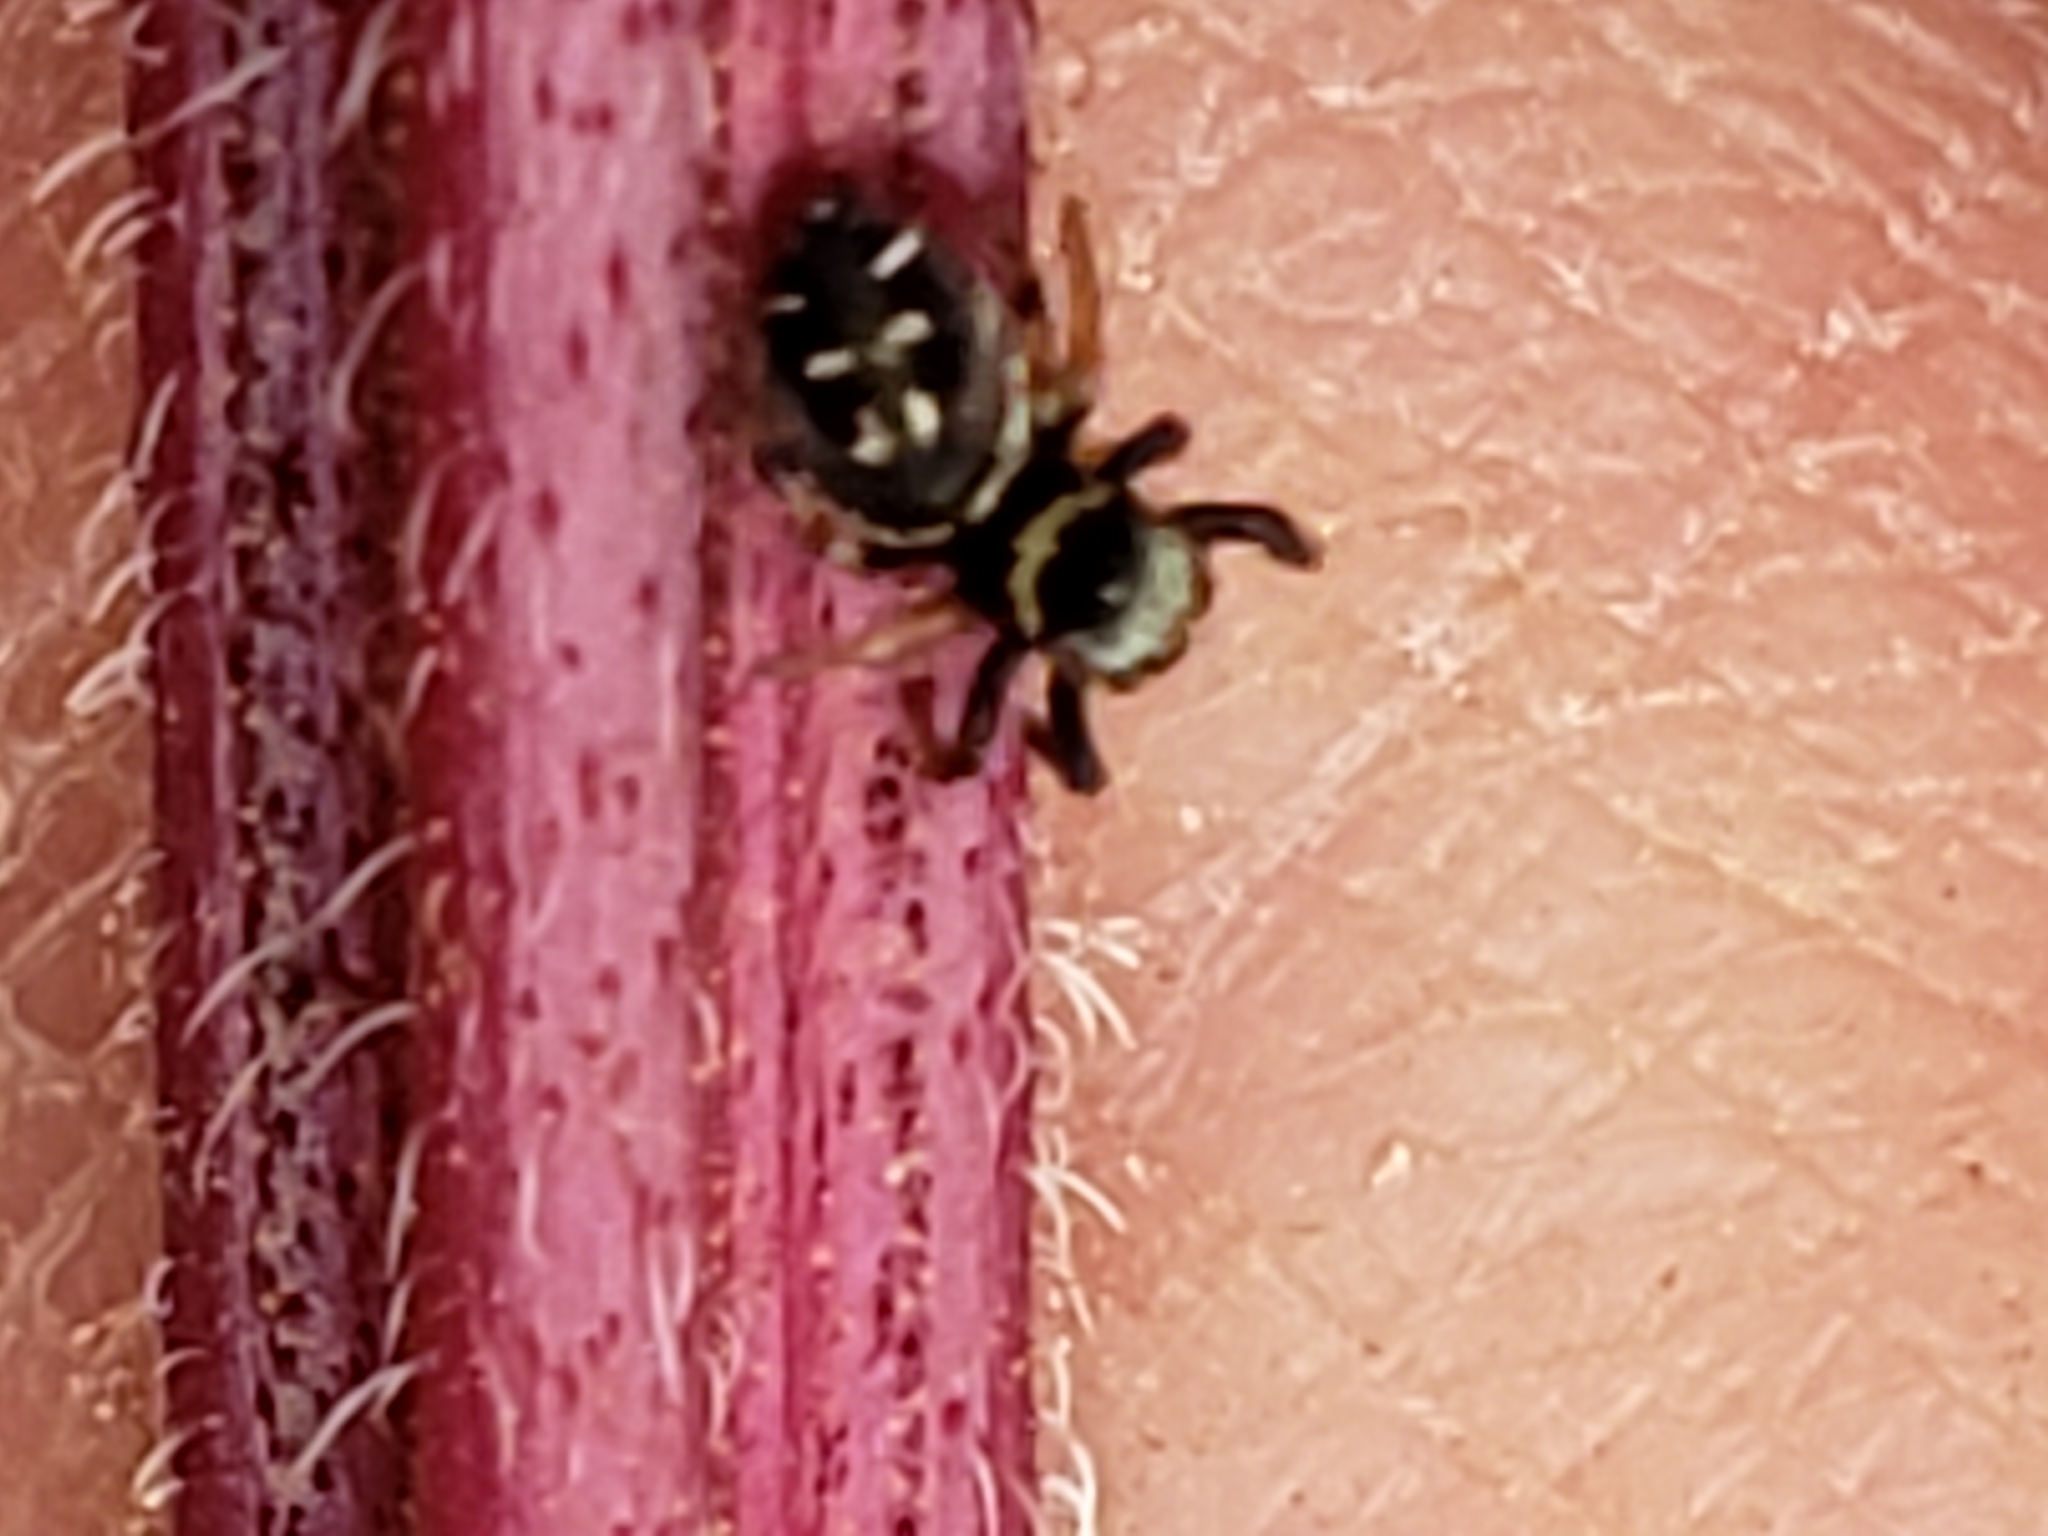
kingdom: Animalia
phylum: Arthropoda
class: Arachnida
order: Araneae
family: Salticidae
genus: Paraphidippus
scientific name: Paraphidippus aurantius
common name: Jumping spiders
